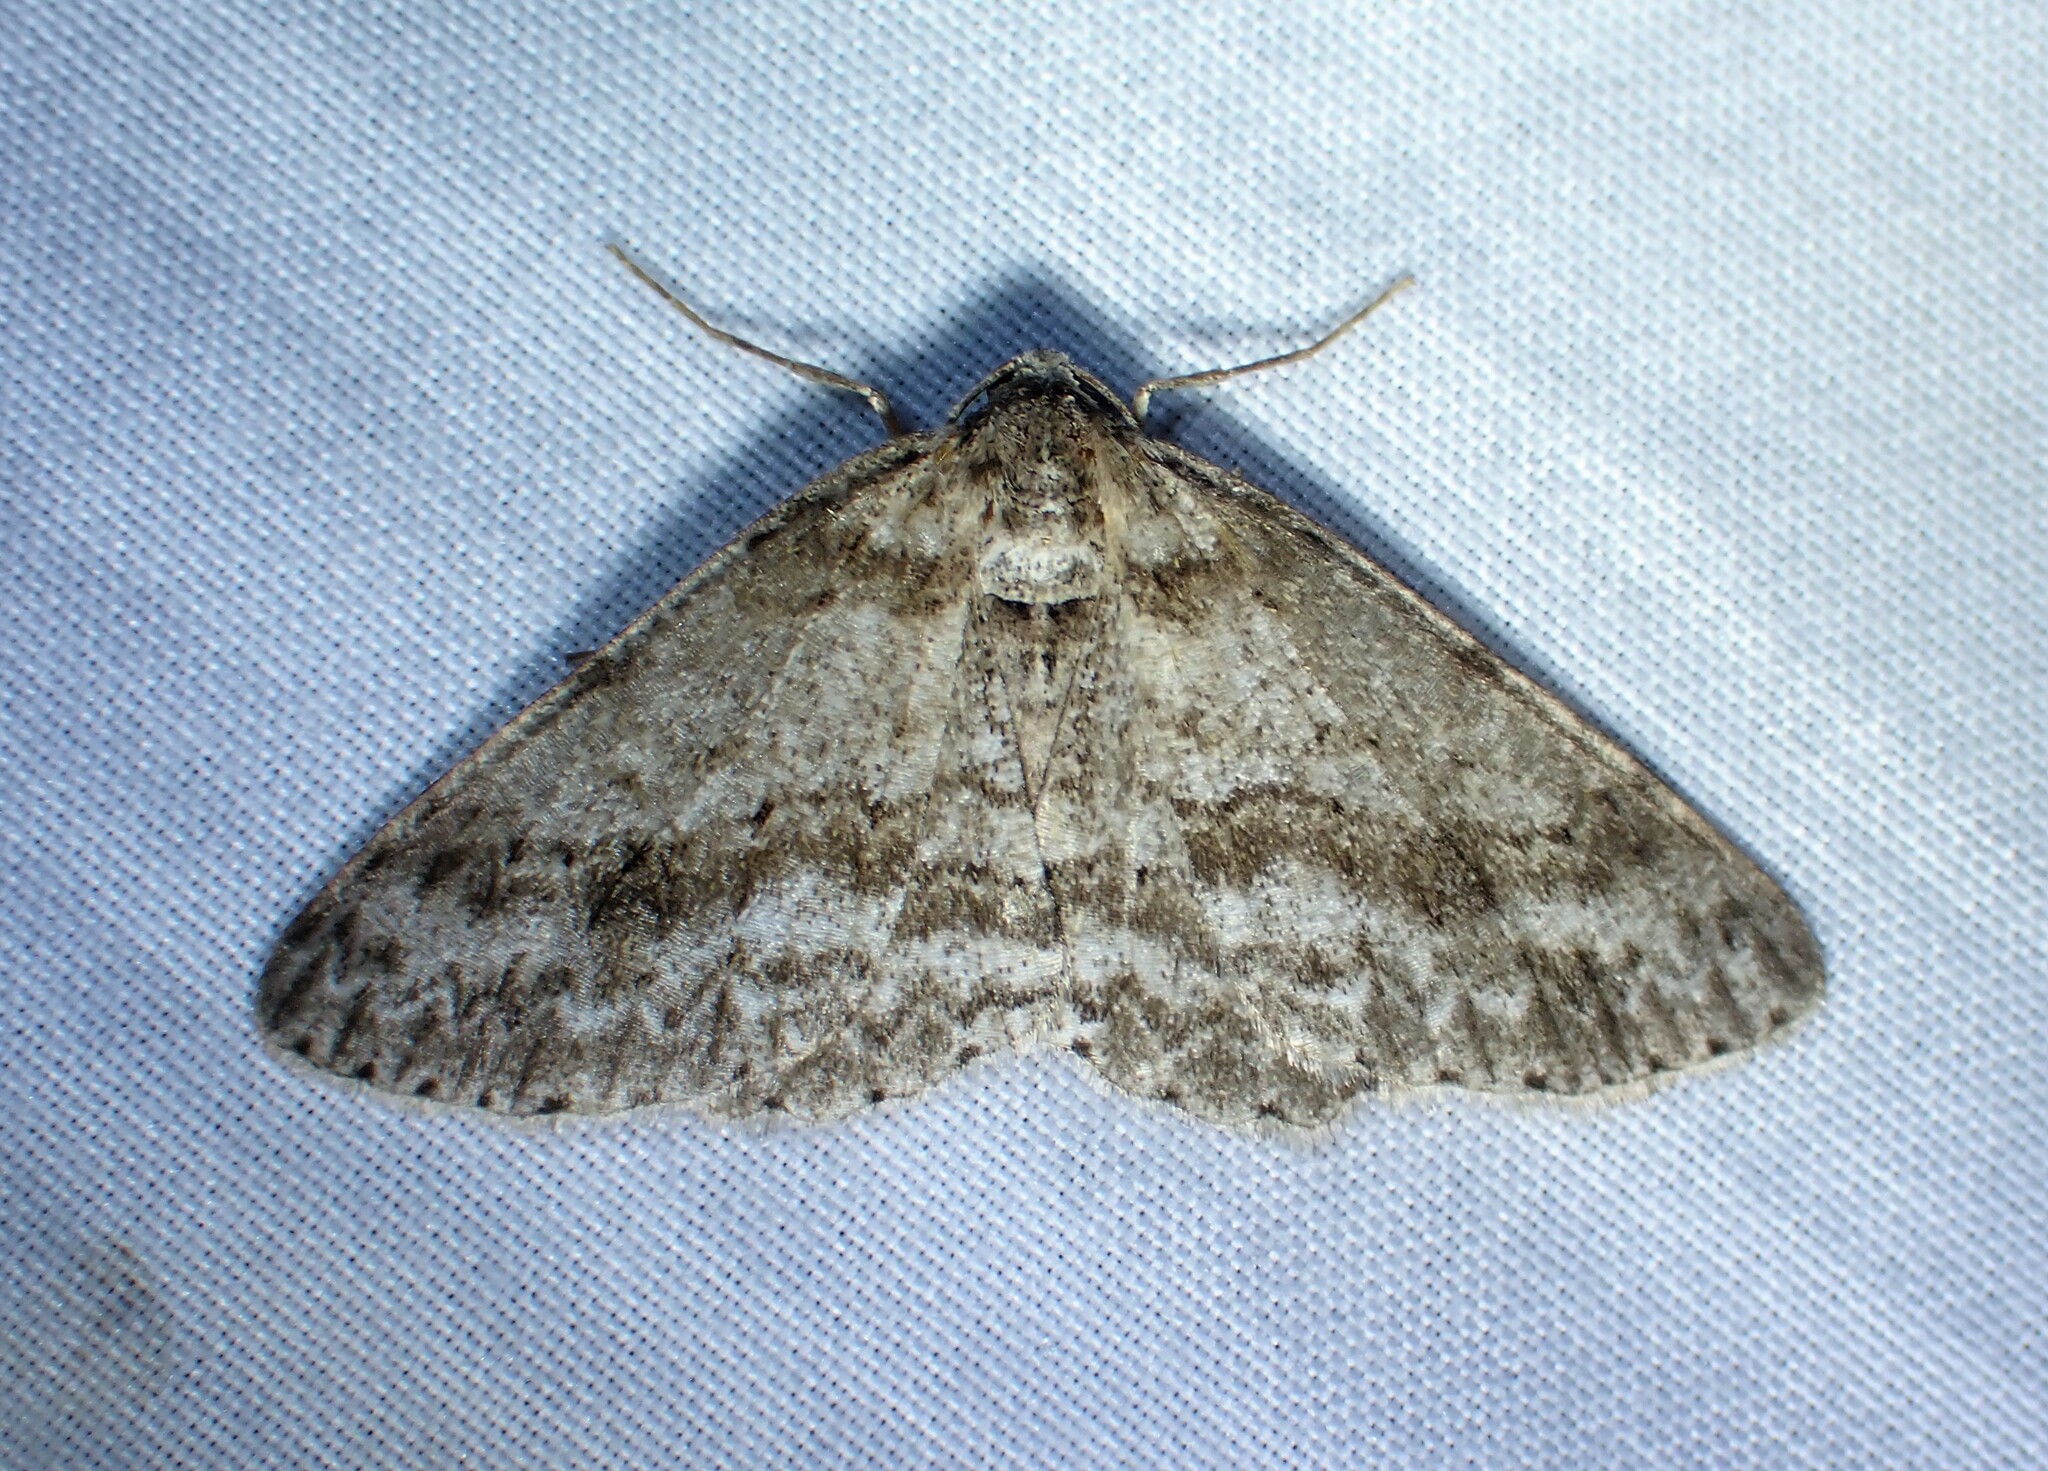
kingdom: Animalia
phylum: Arthropoda
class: Insecta
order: Lepidoptera
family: Geometridae
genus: Ectropis
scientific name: Ectropis crepuscularia
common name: Engrailed
